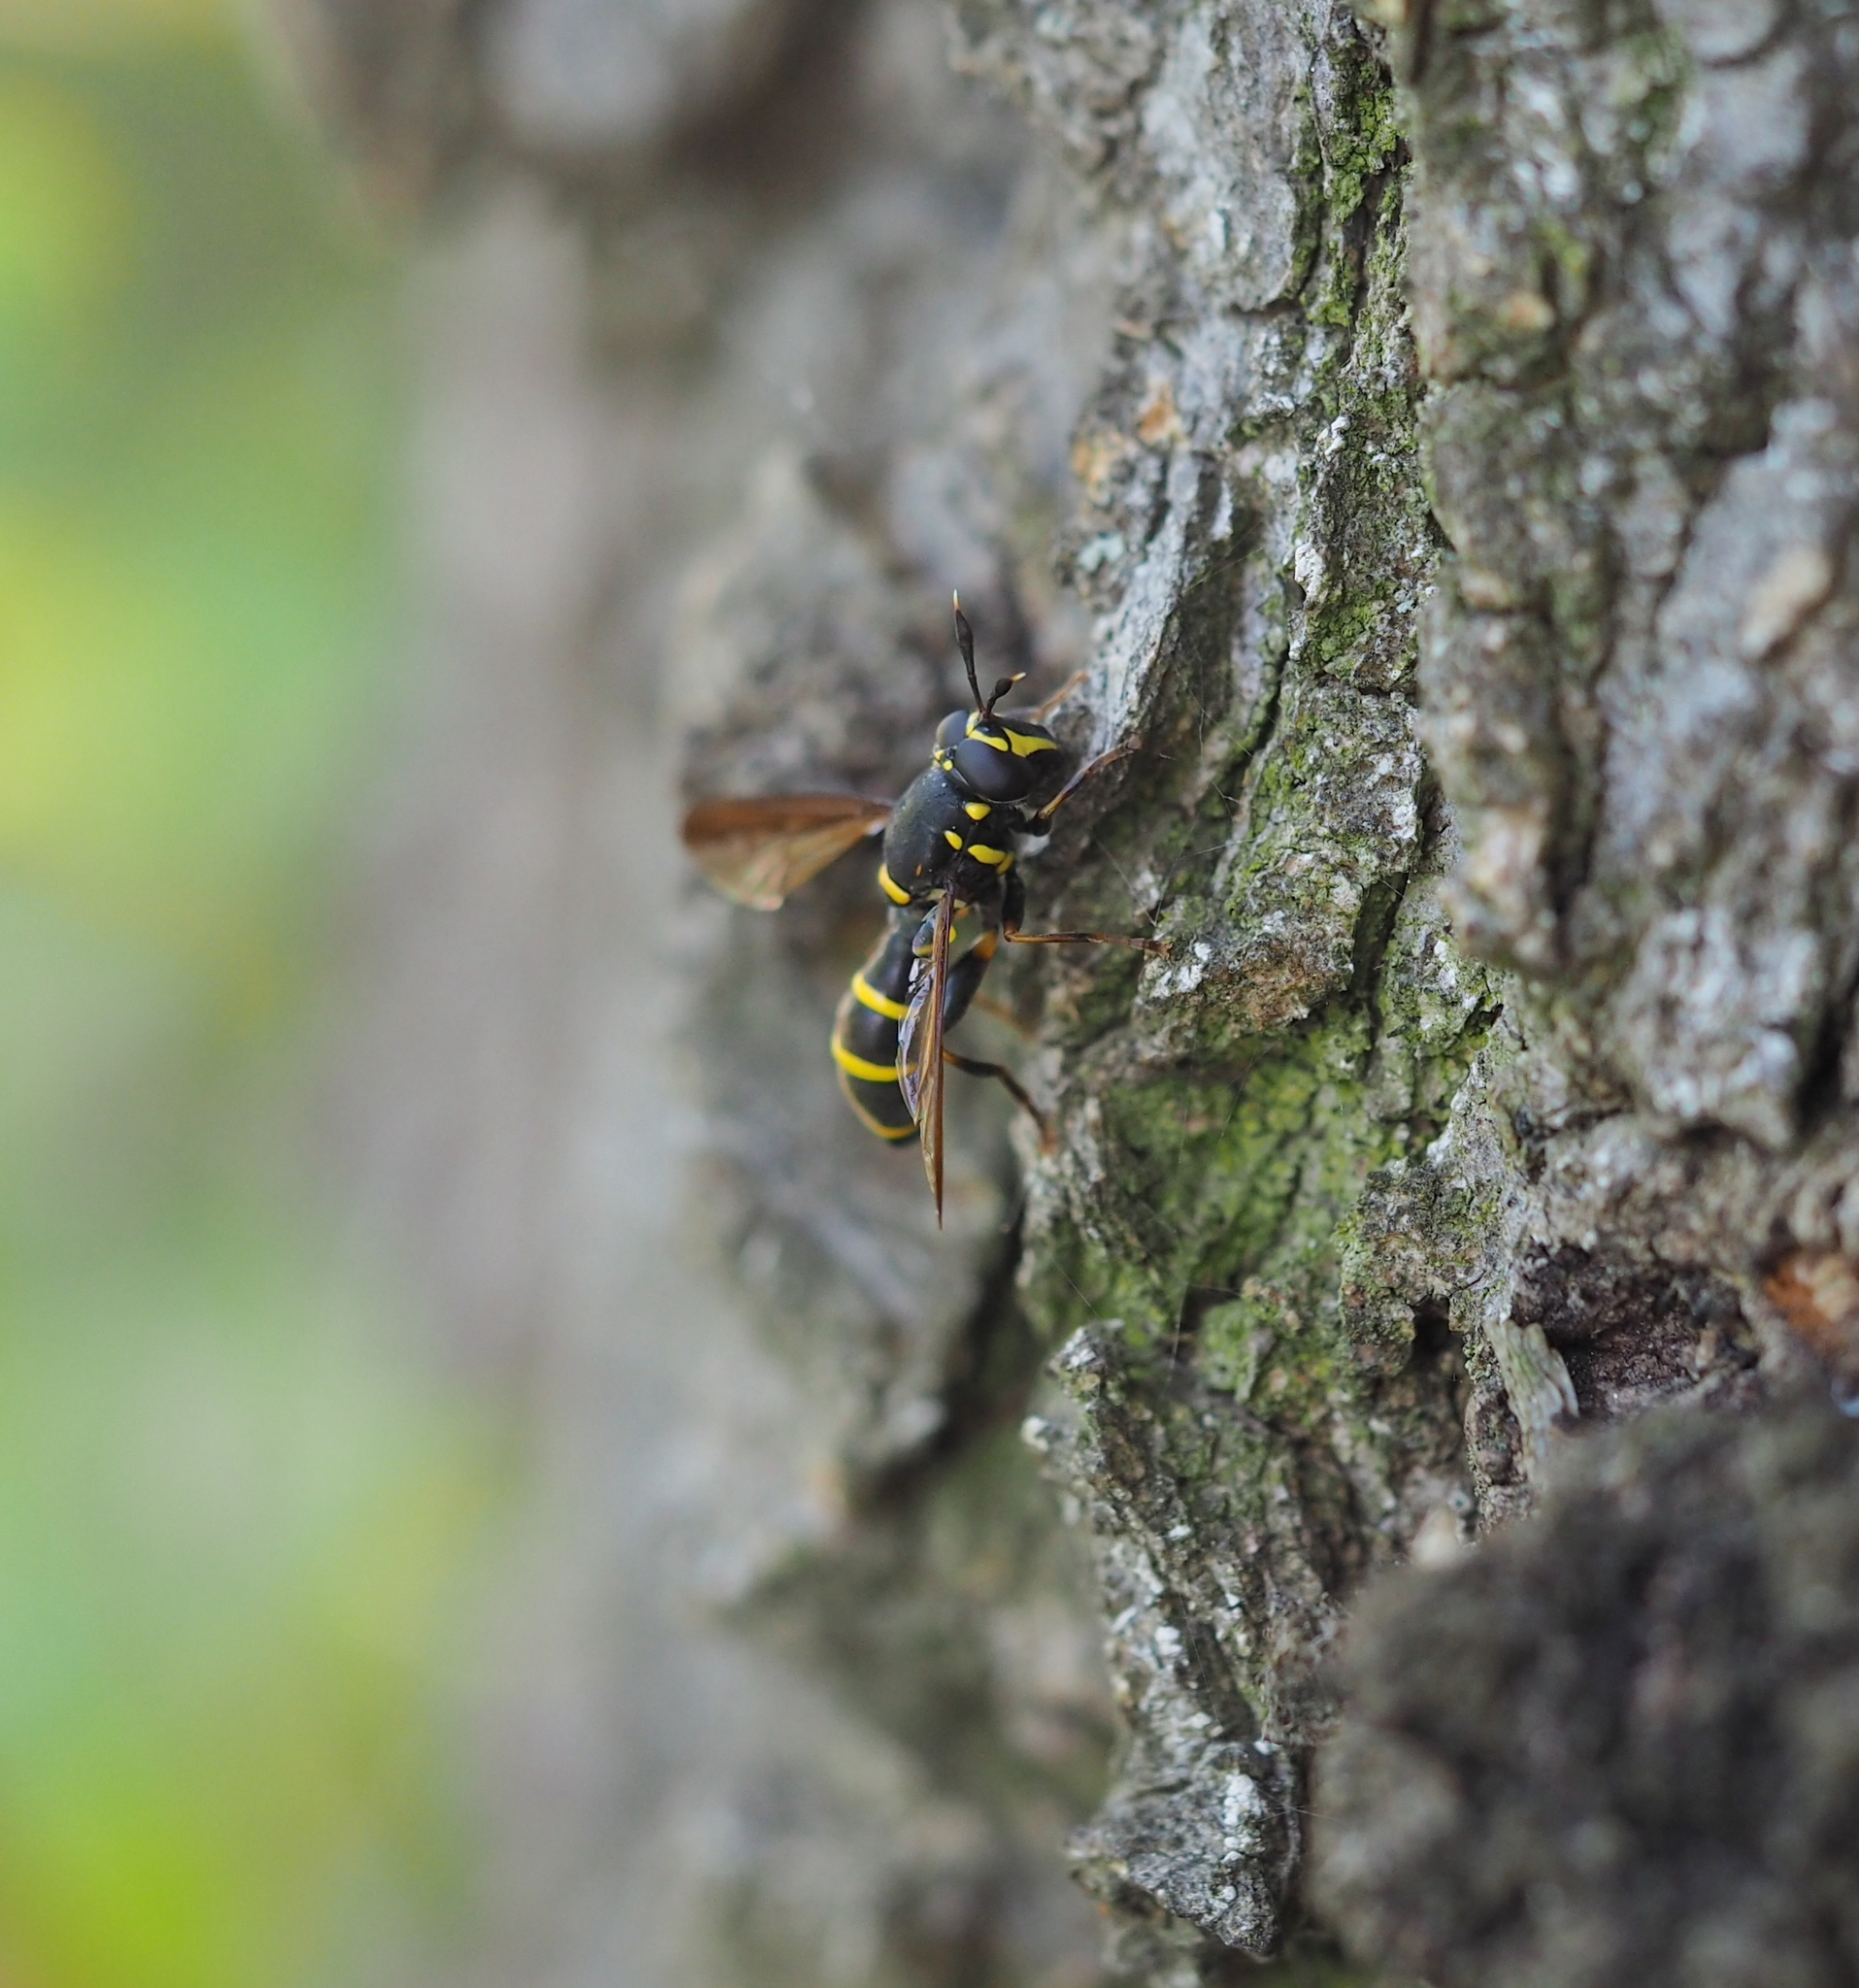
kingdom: Animalia
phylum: Arthropoda
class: Insecta
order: Diptera
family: Syrphidae
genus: Sphiximorpha
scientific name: Sphiximorpha subsessilis
